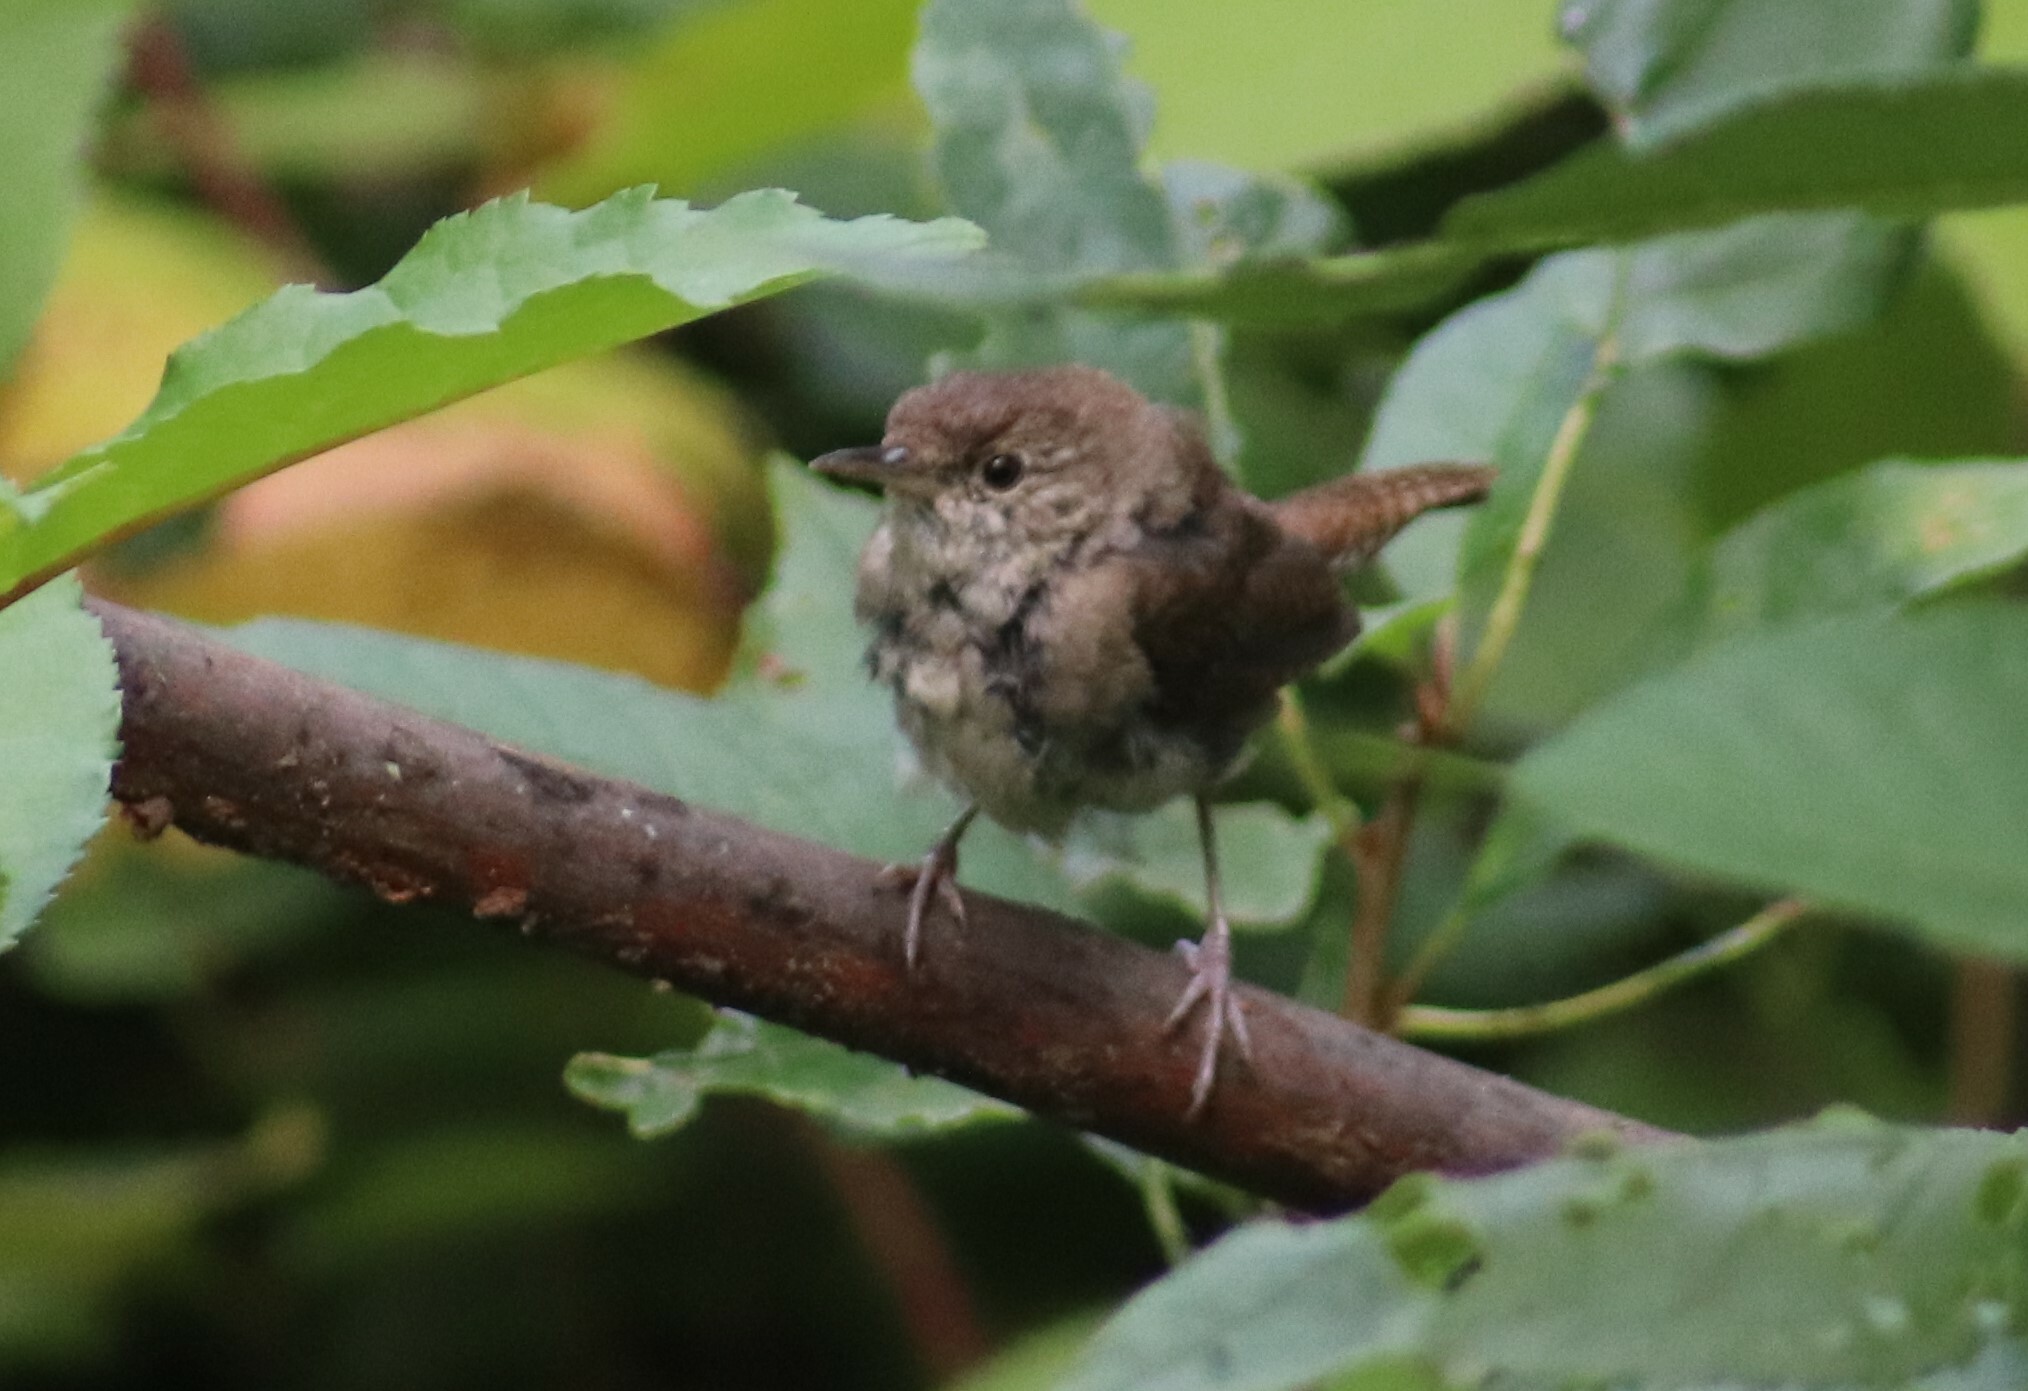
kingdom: Animalia
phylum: Chordata
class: Aves
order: Passeriformes
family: Troglodytidae
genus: Troglodytes
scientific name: Troglodytes aedon
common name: House wren
